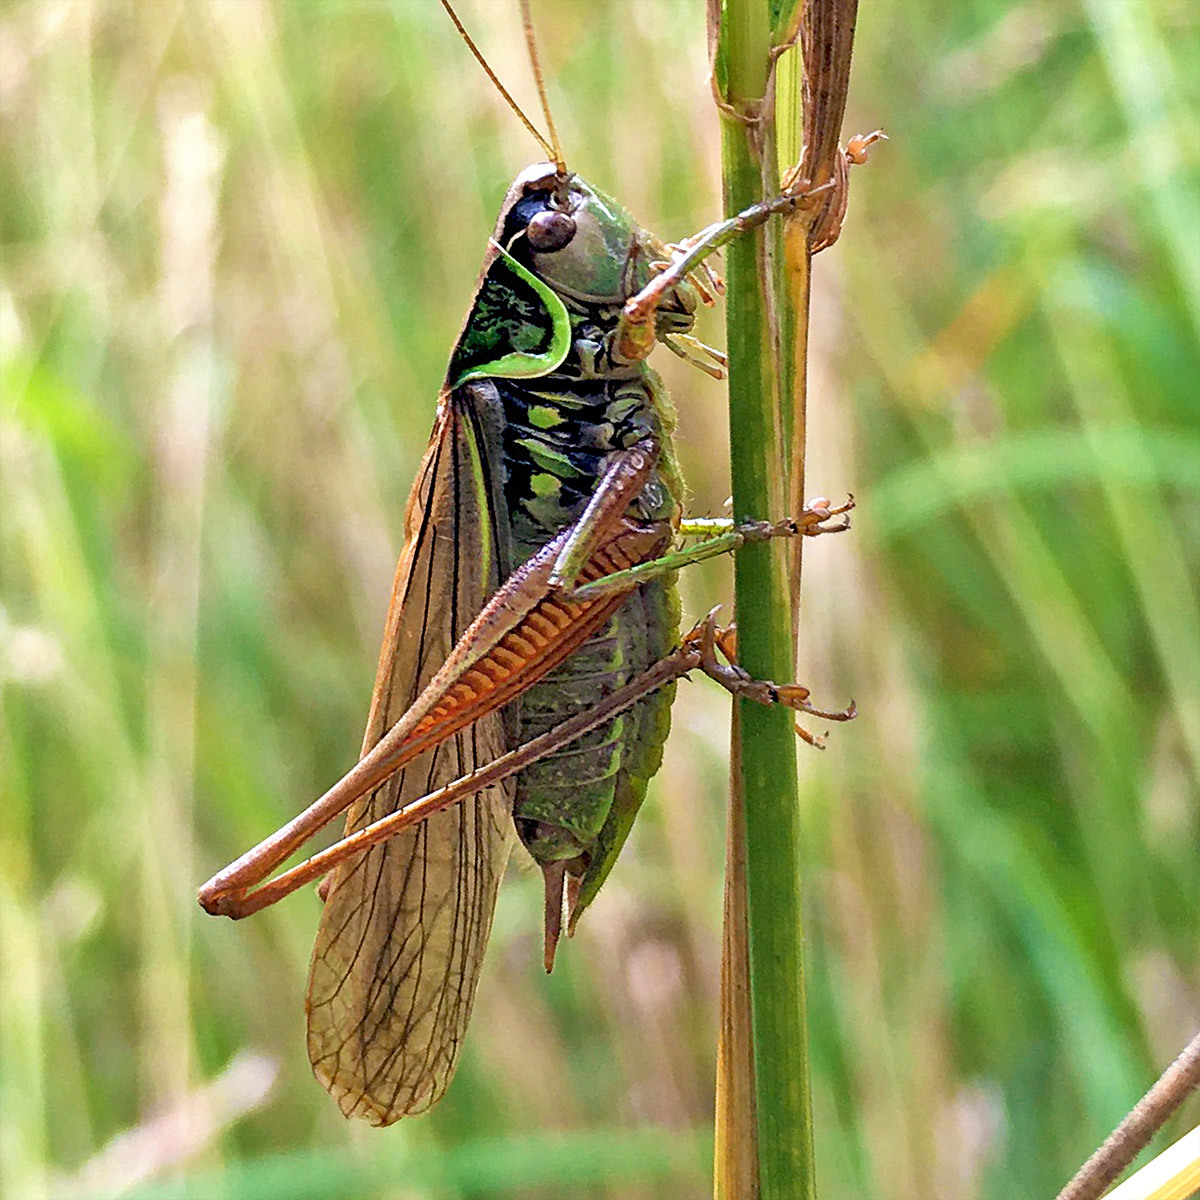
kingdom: Animalia
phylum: Arthropoda
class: Insecta
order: Orthoptera
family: Tettigoniidae
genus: Roeseliana
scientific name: Roeseliana roeselii
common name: Roesel's bush cricket
